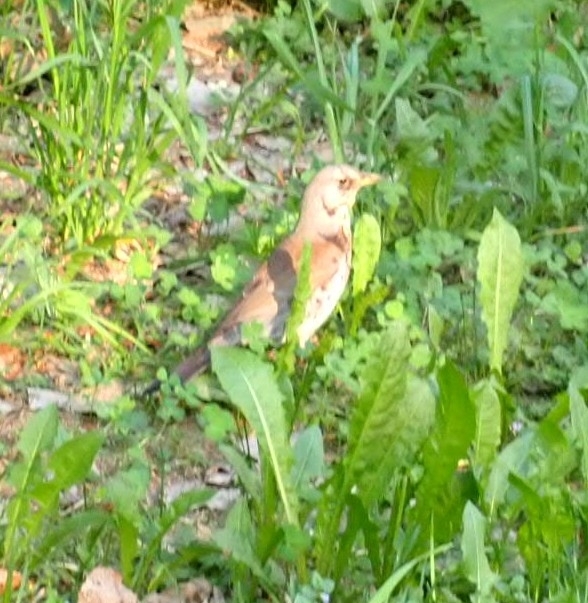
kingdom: Animalia
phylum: Chordata
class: Aves
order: Passeriformes
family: Turdidae
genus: Turdus
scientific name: Turdus pilaris
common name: Fieldfare
